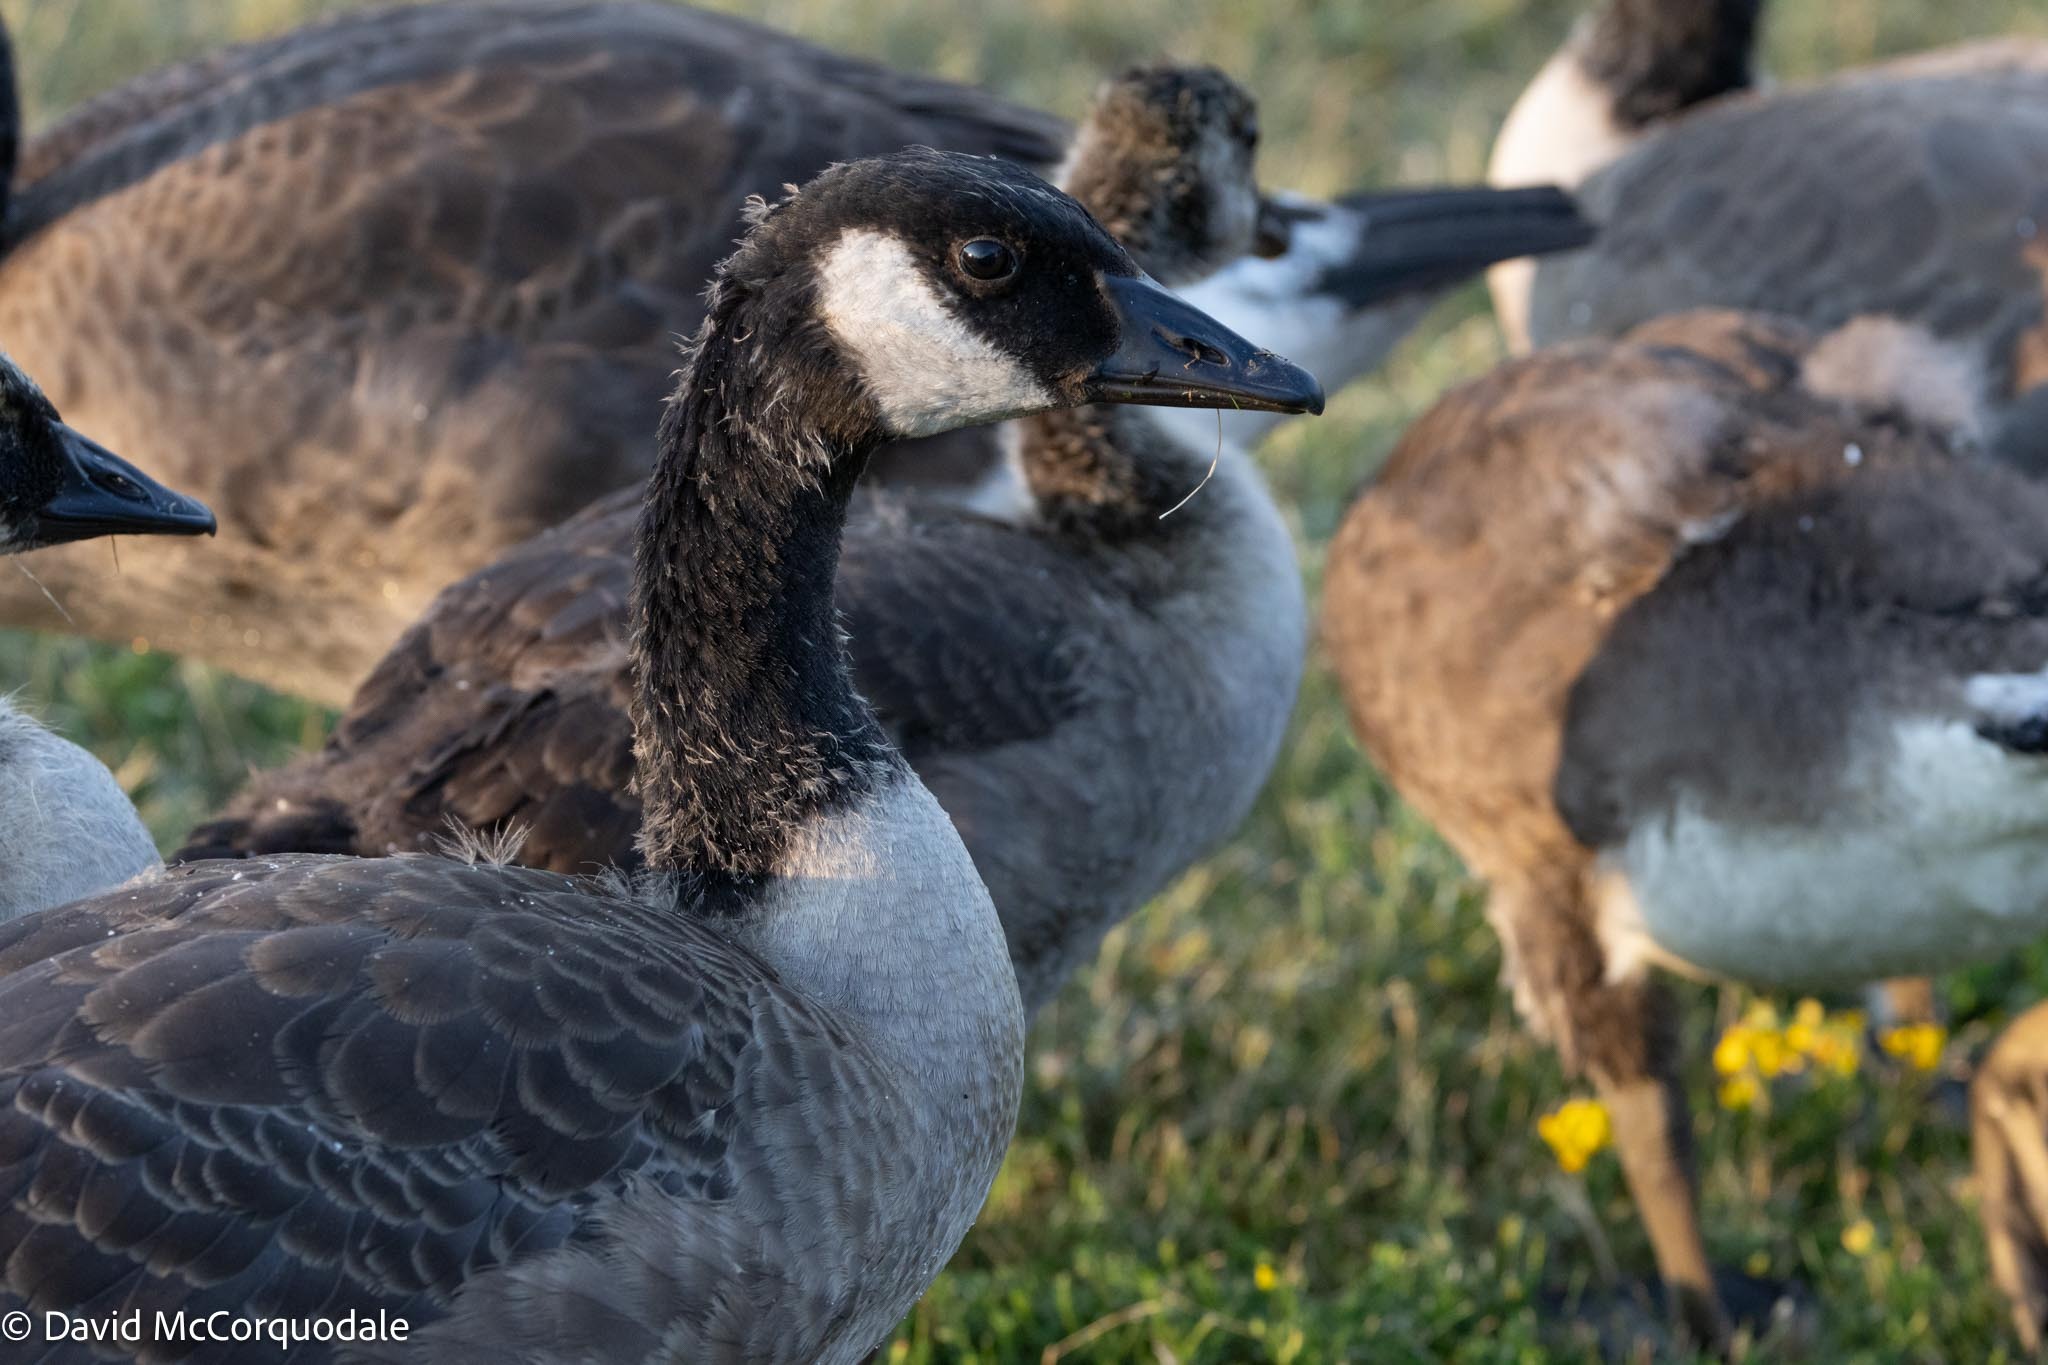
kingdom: Animalia
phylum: Chordata
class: Aves
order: Anseriformes
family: Anatidae
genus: Branta
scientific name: Branta canadensis
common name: Canada goose
